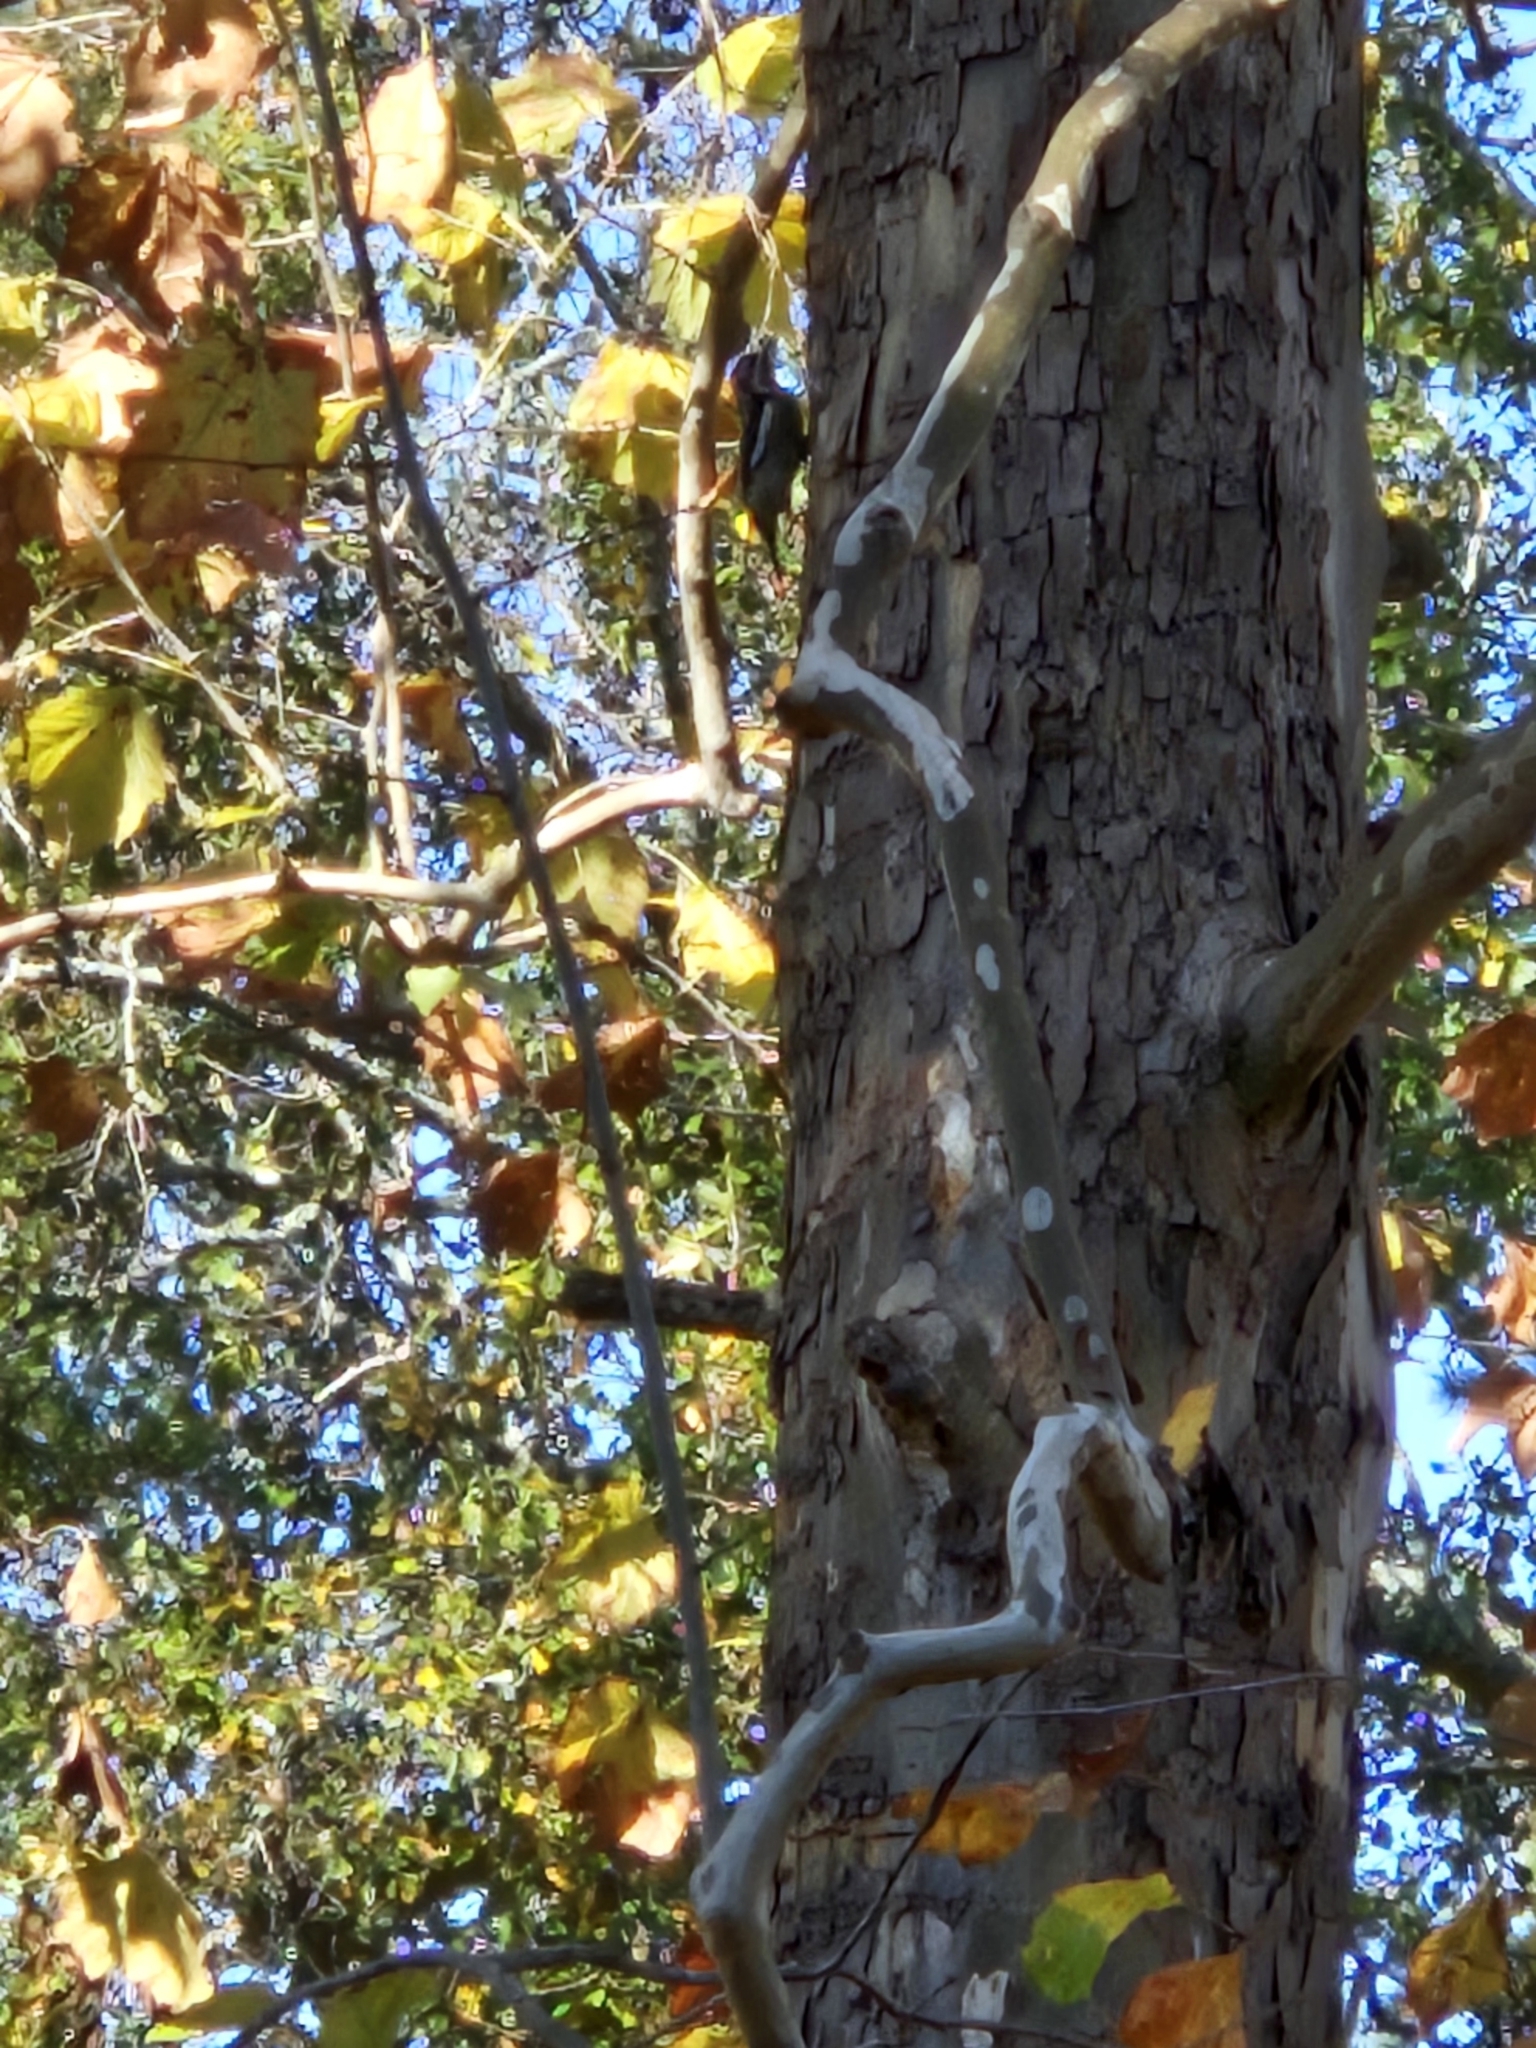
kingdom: Animalia
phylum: Chordata
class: Aves
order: Piciformes
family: Picidae
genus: Sphyrapicus
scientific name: Sphyrapicus varius
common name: Yellow-bellied sapsucker
